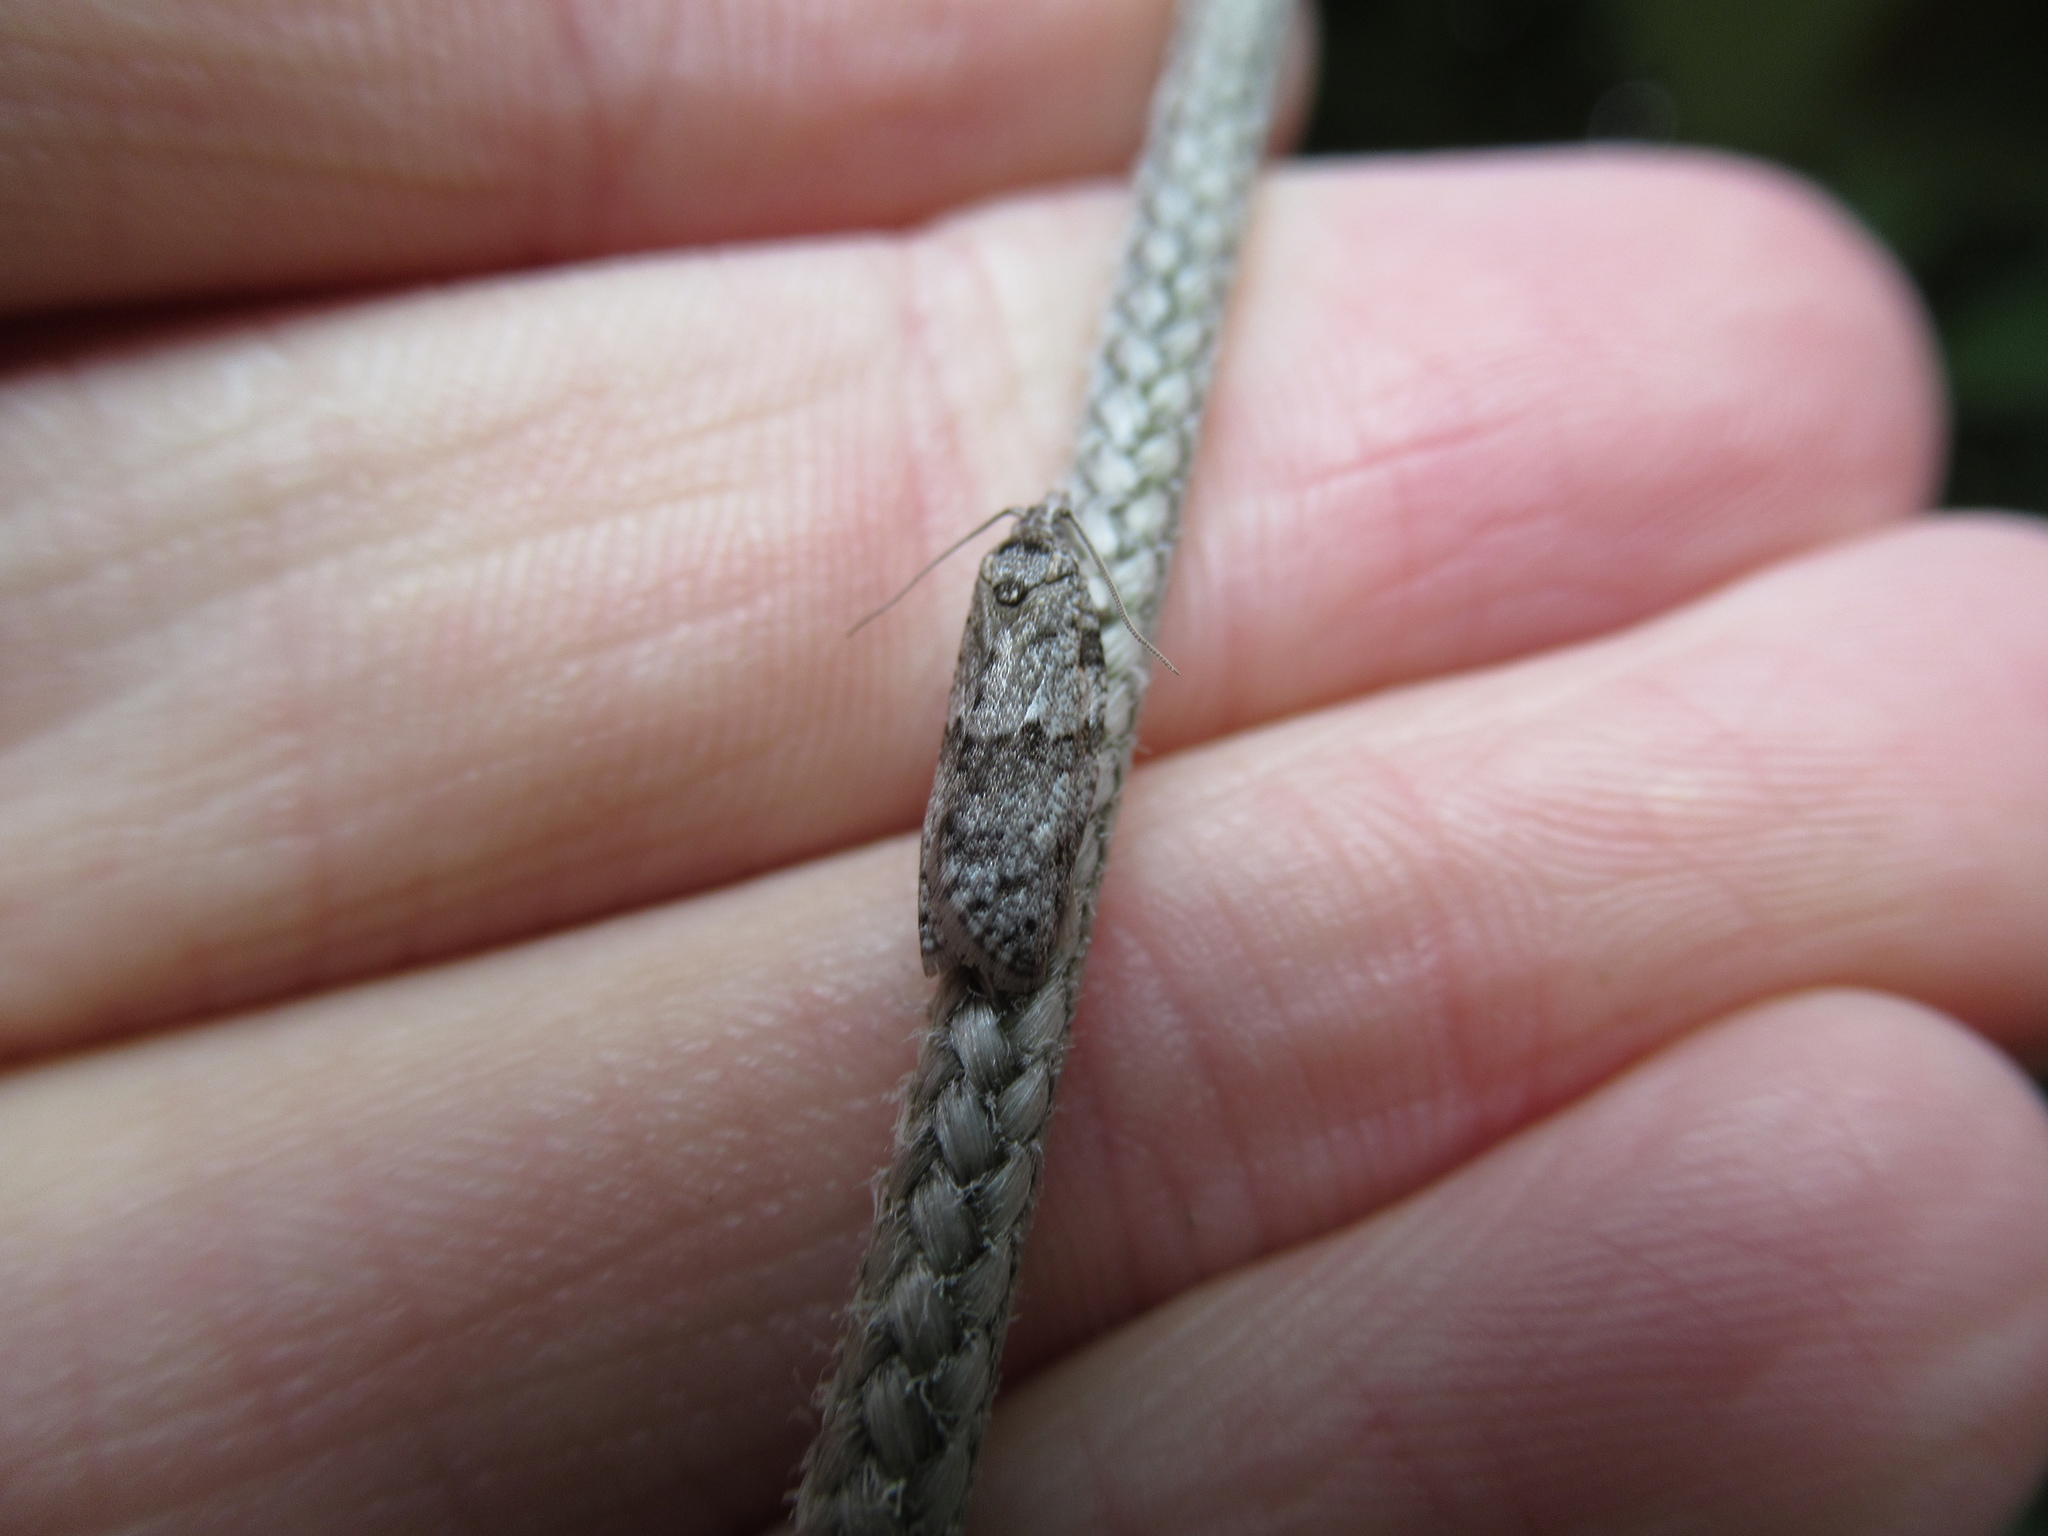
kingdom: Animalia
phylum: Arthropoda
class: Insecta
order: Lepidoptera
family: Tortricidae
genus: Isotenes
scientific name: Isotenes miserana
